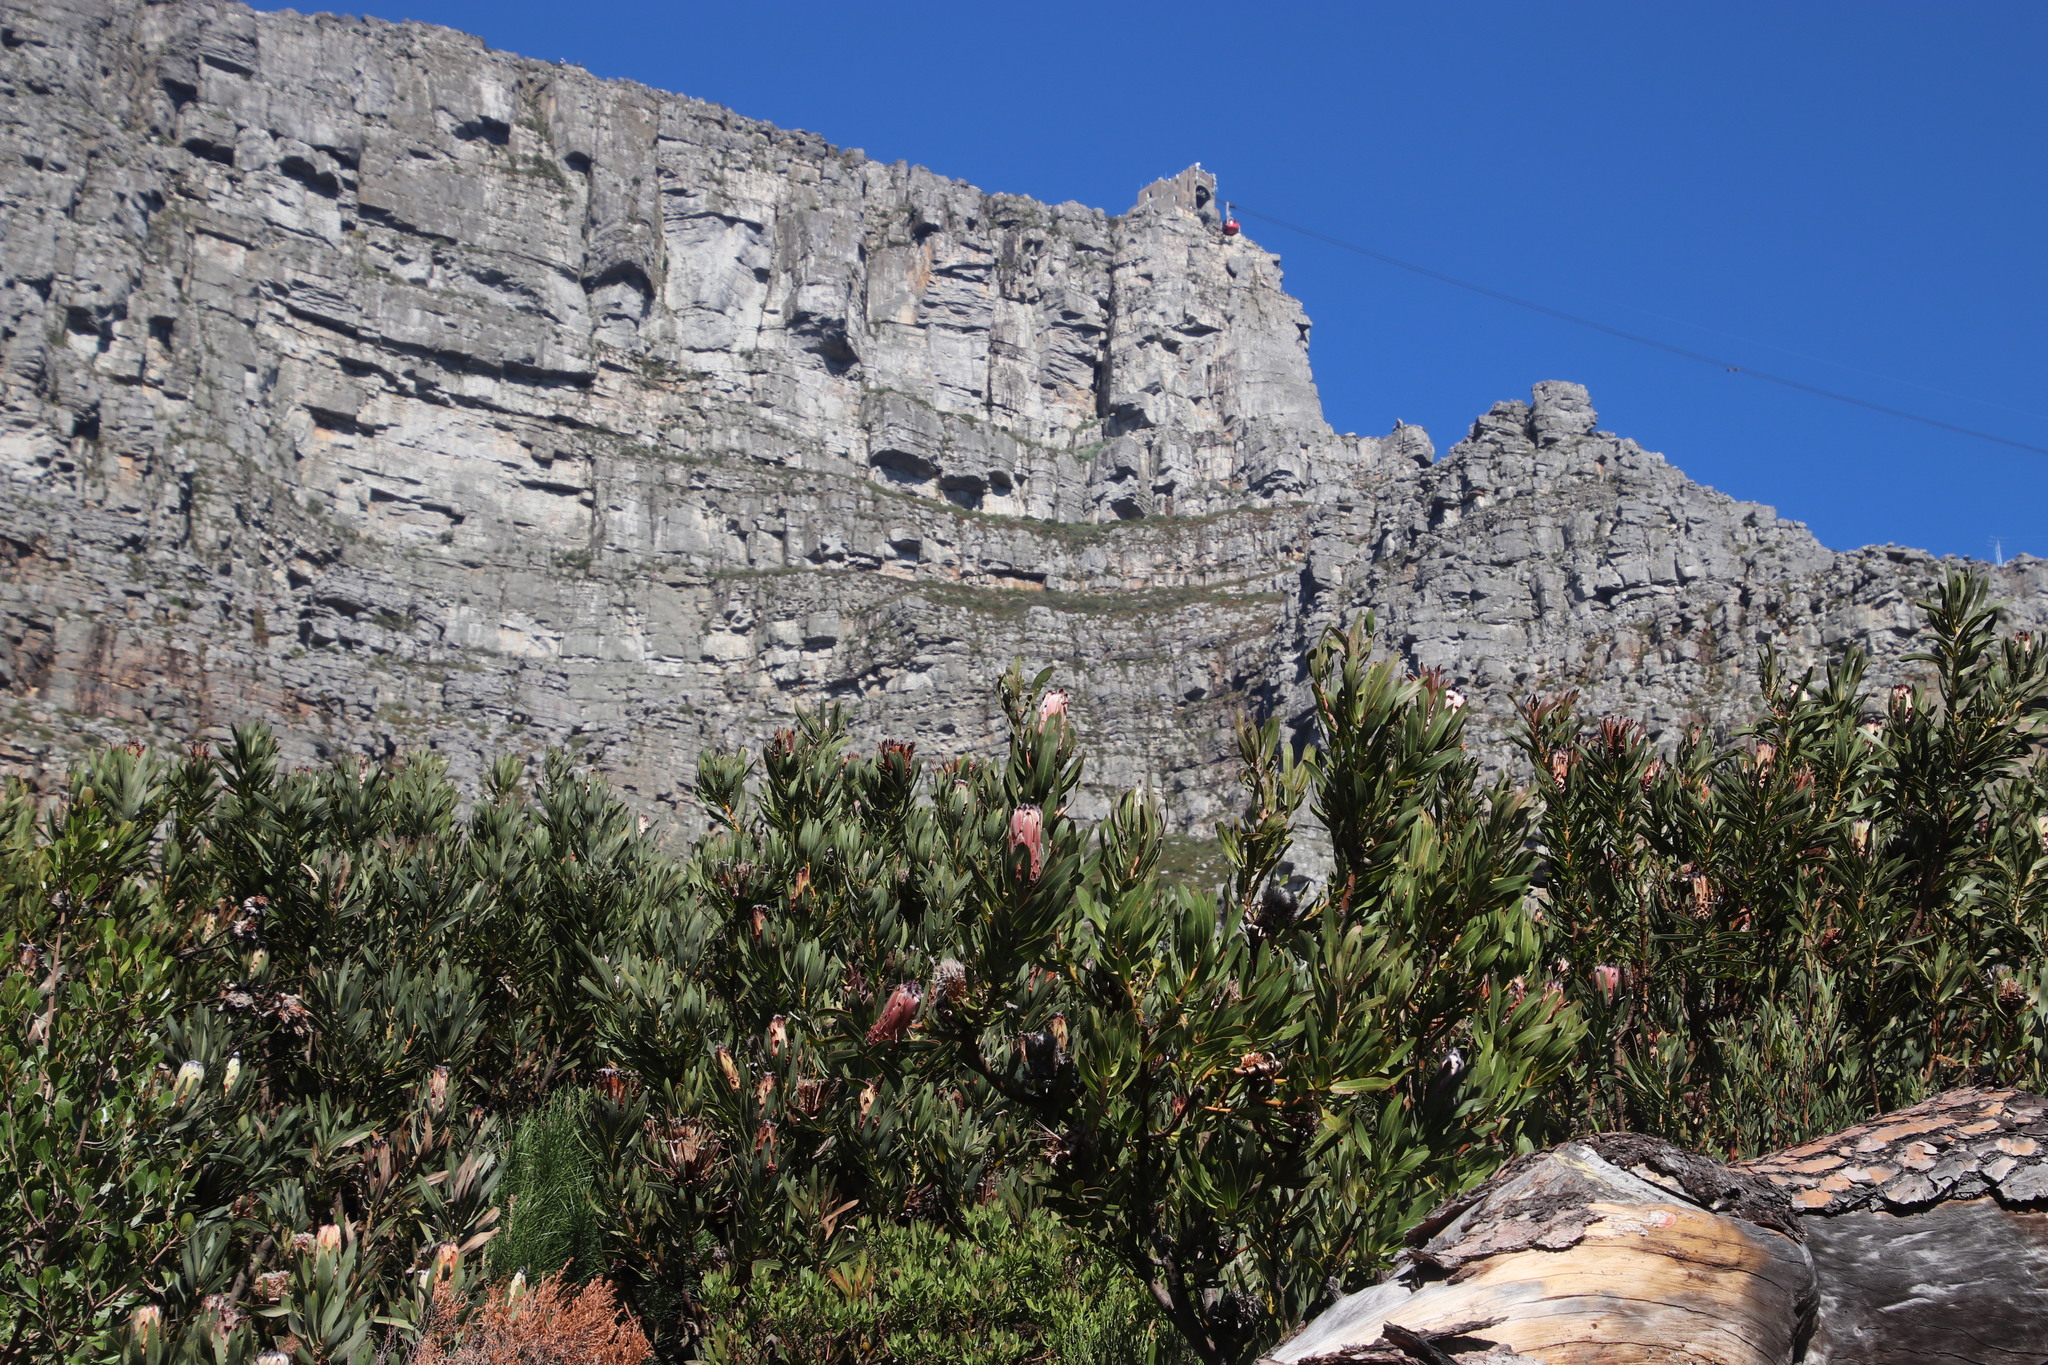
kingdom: Plantae
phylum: Tracheophyta
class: Magnoliopsida
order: Proteales
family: Proteaceae
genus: Protea
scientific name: Protea laurifolia
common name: Grey-leaf sugarbsh
